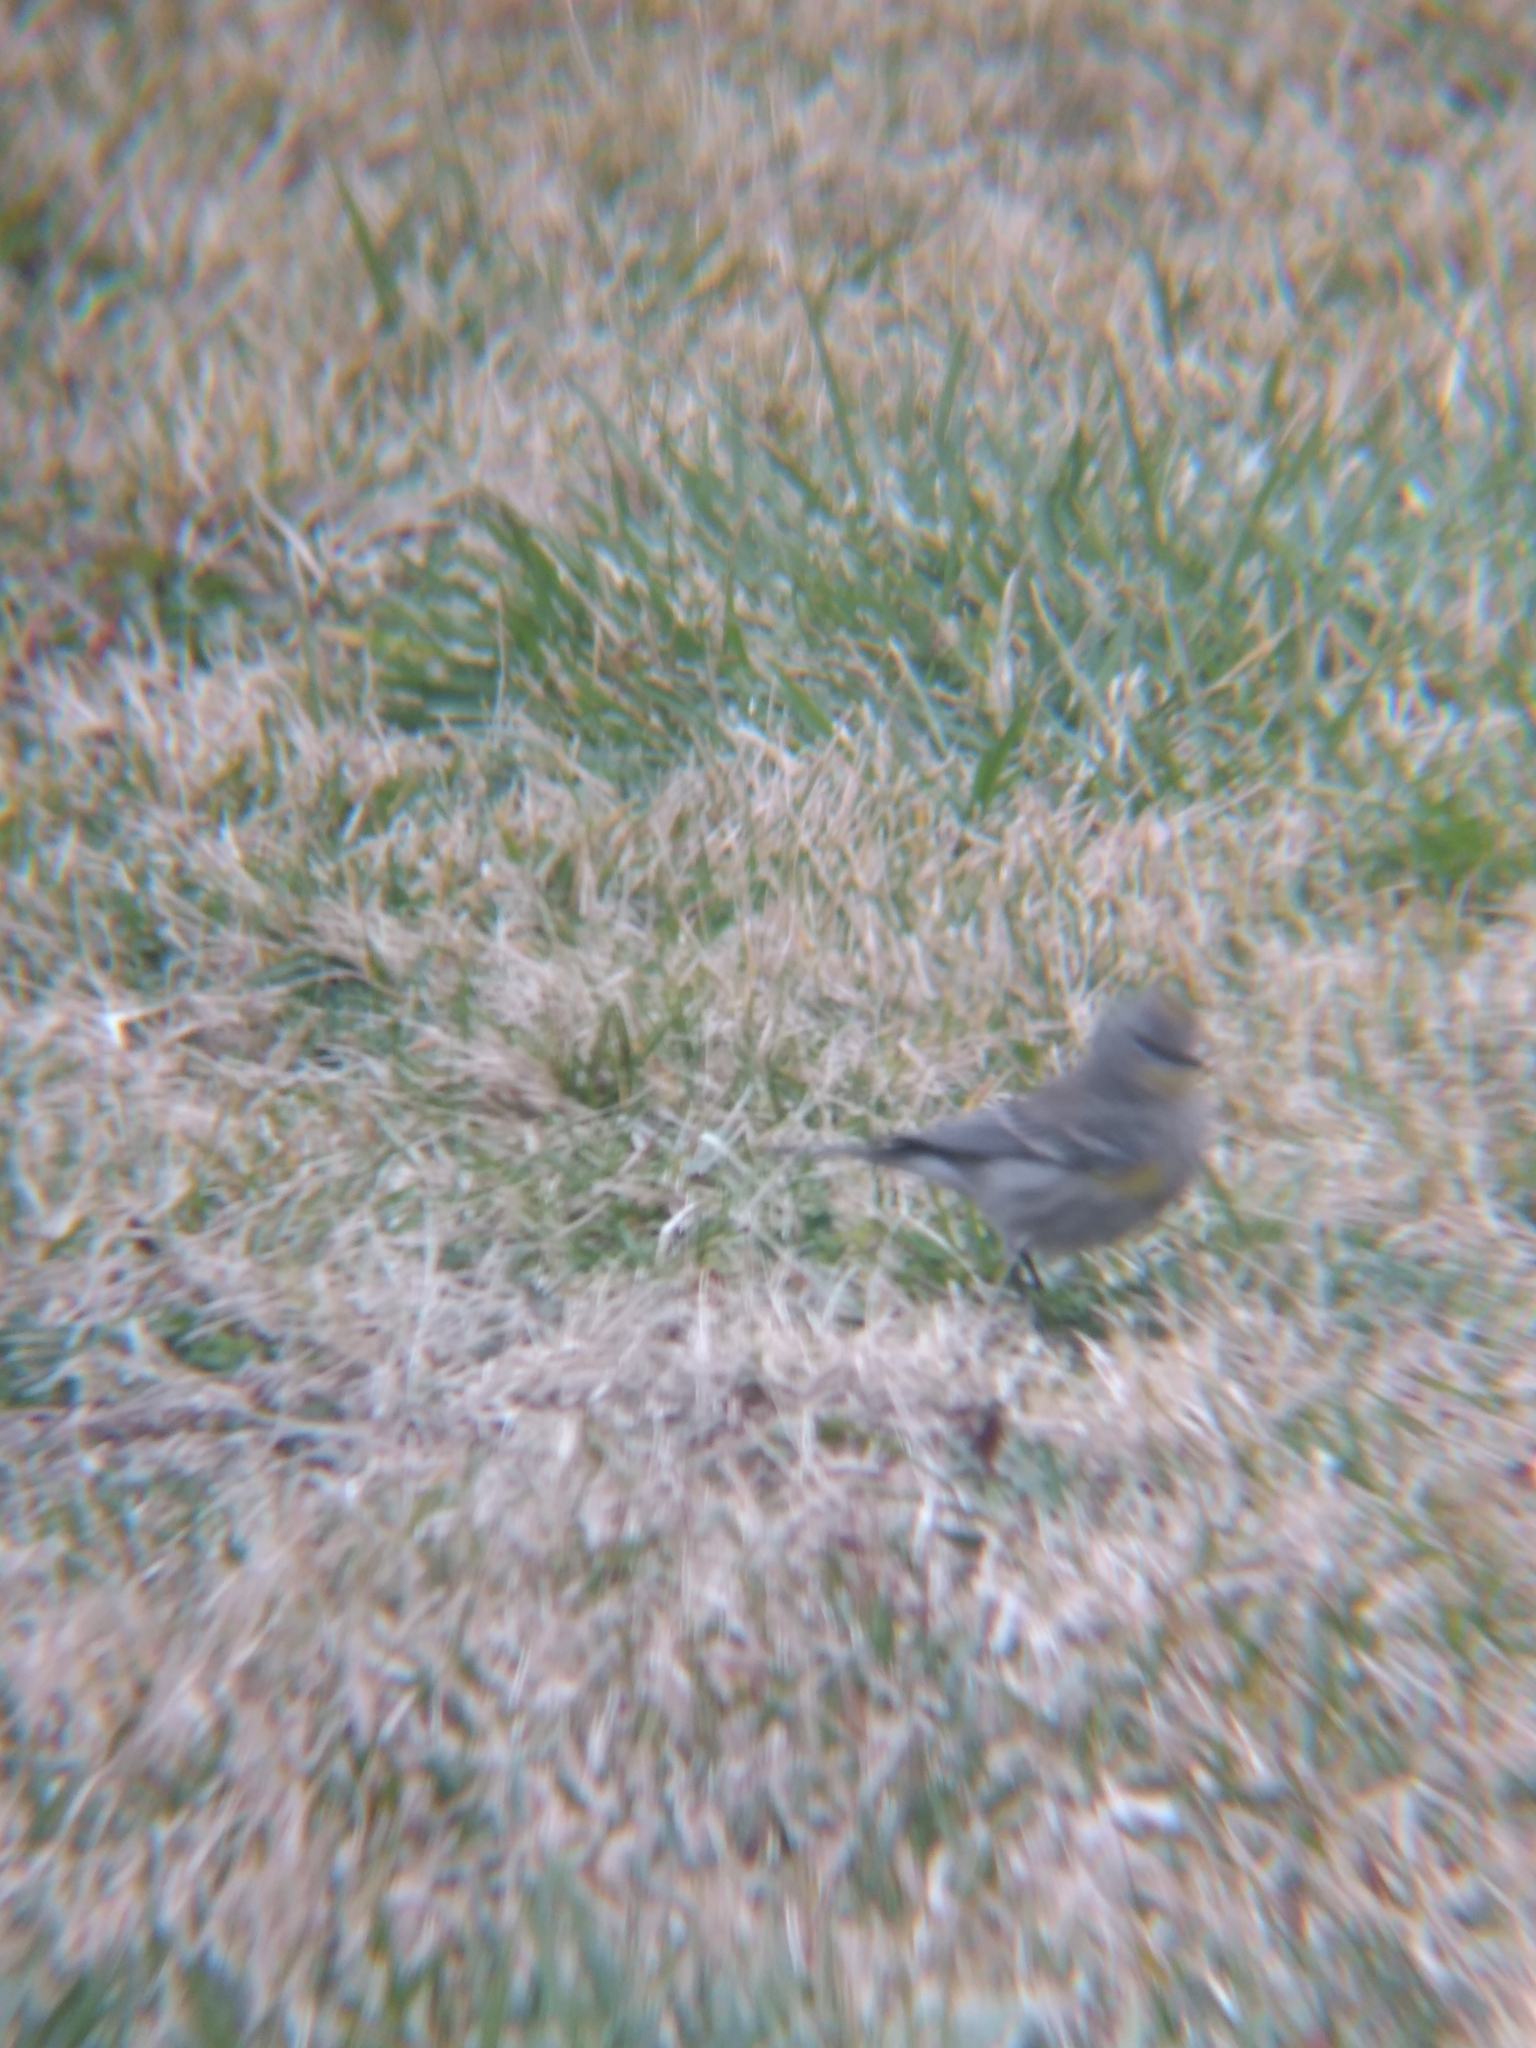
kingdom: Animalia
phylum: Chordata
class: Aves
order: Passeriformes
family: Parulidae
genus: Setophaga
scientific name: Setophaga coronata
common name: Myrtle warbler
